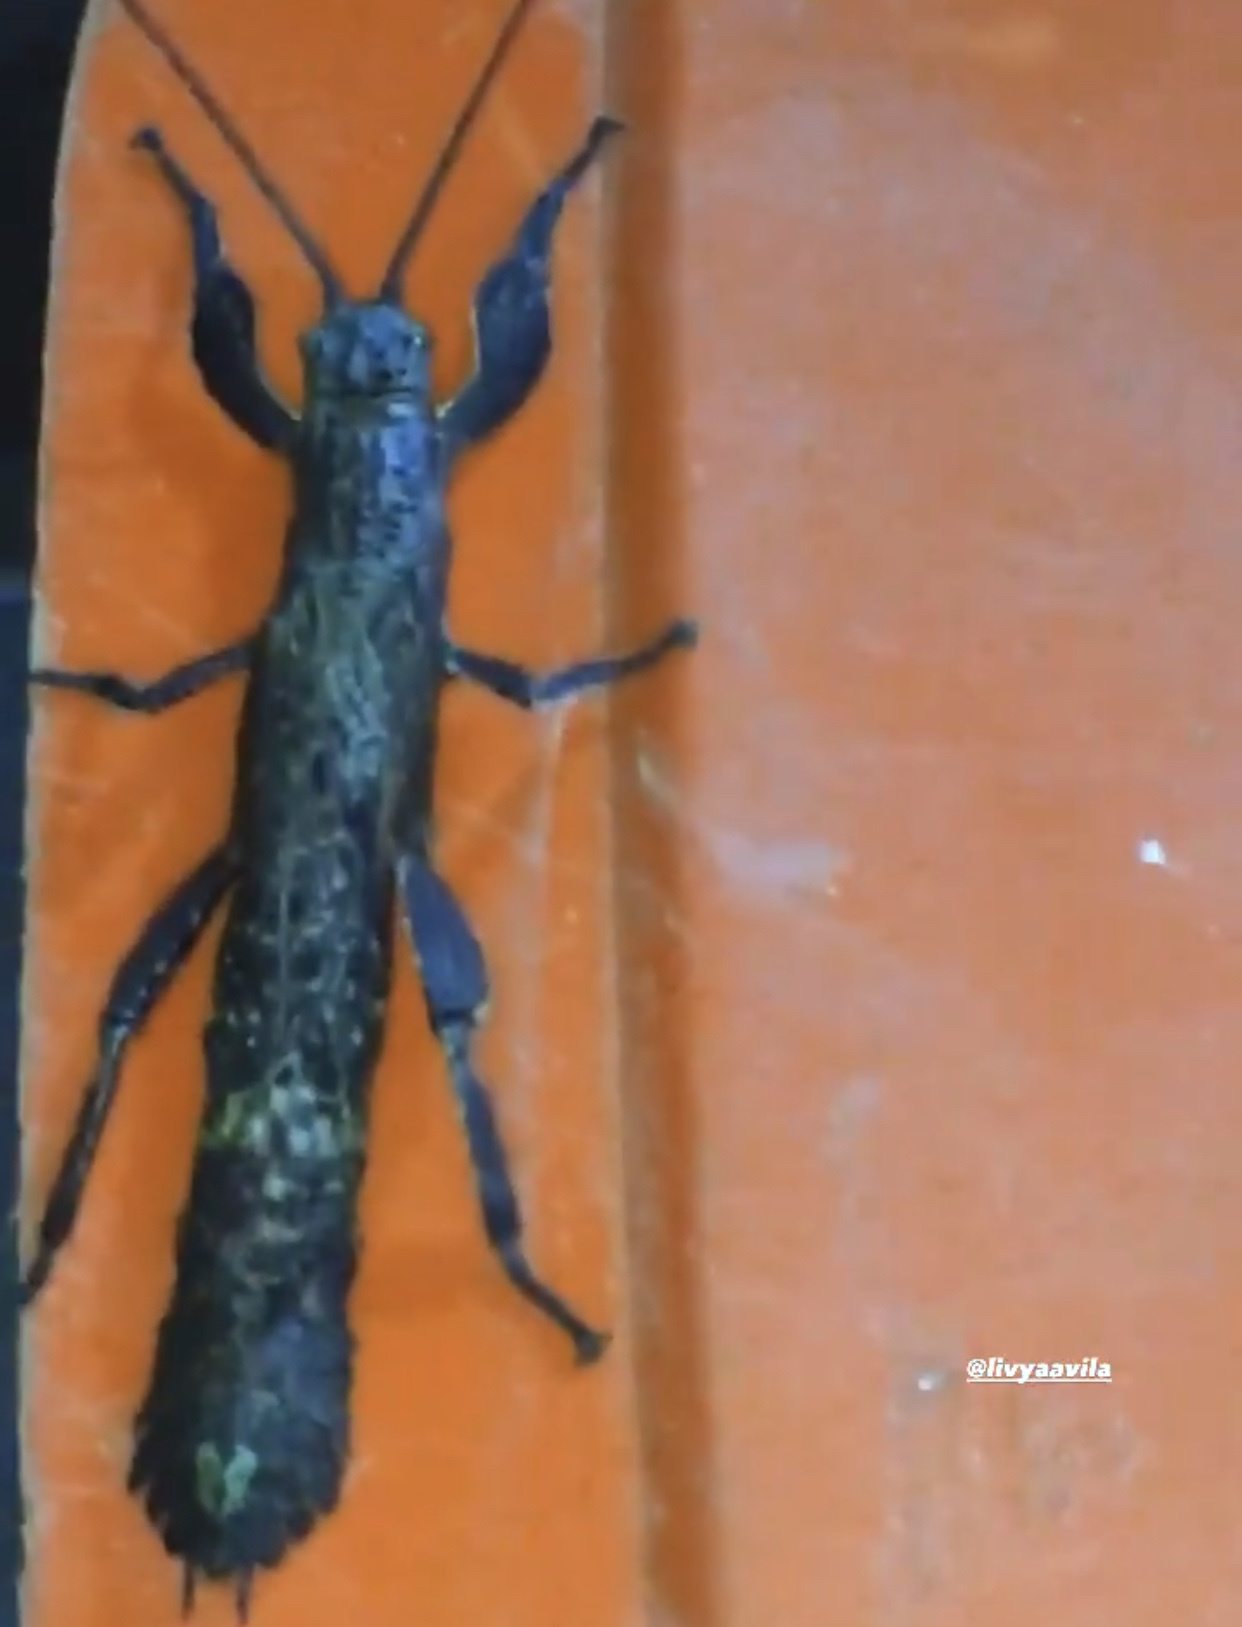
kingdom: Animalia
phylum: Arthropoda
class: Insecta
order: Phasmida
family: Prisopodidae
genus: Prisopus
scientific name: Prisopus ohrtmanni
